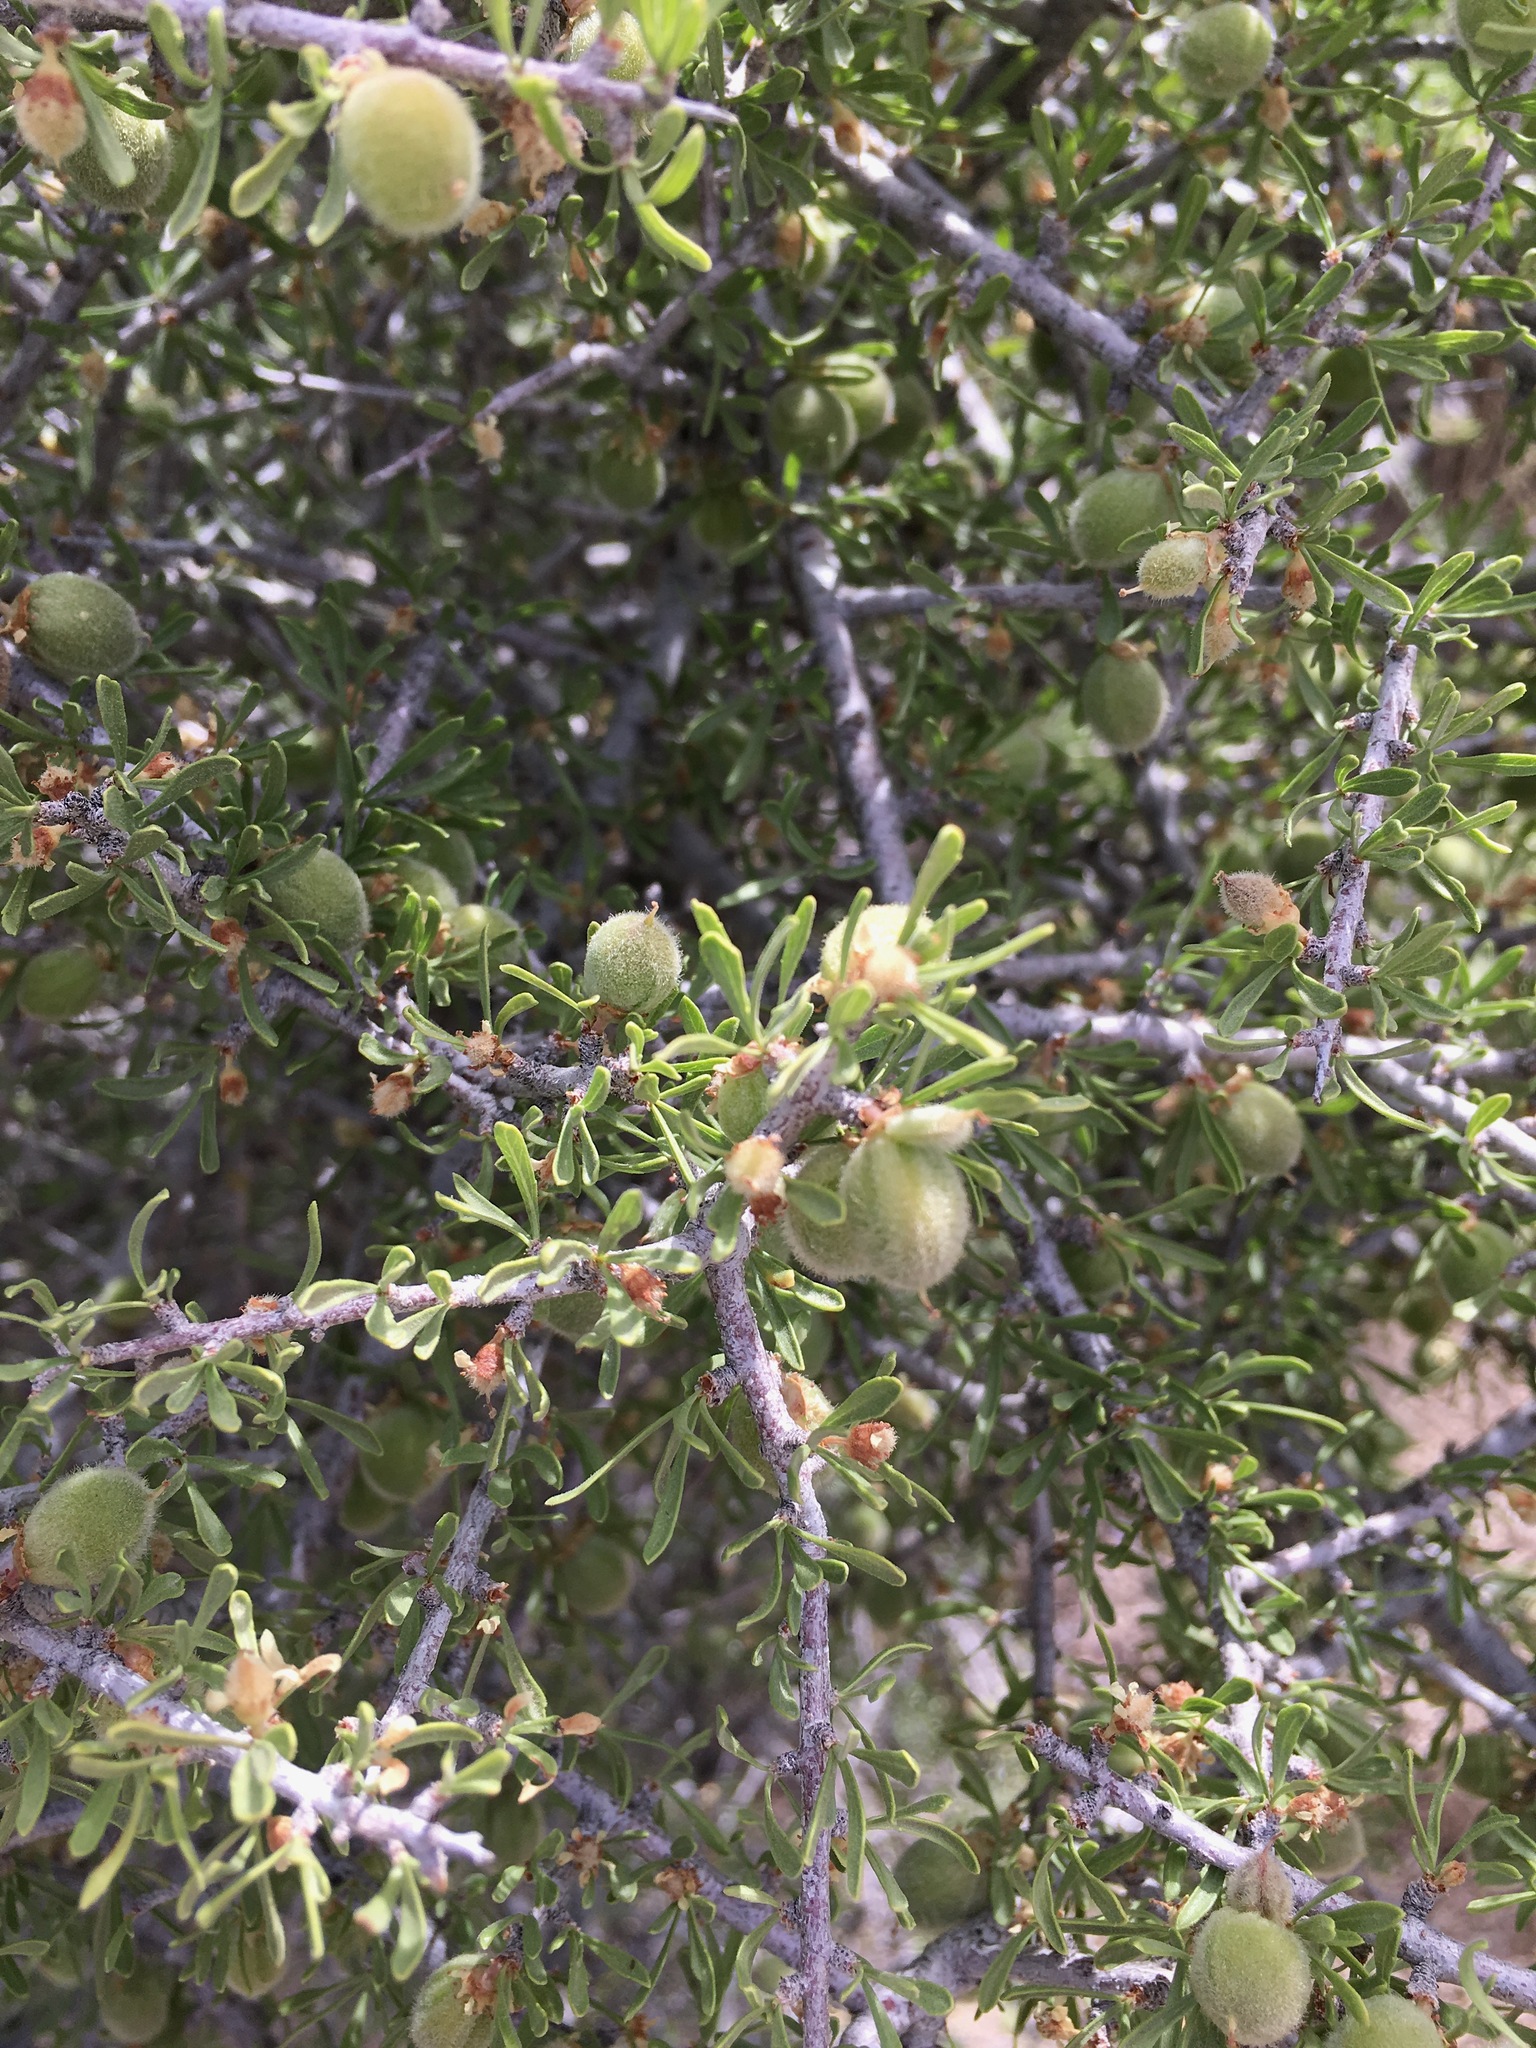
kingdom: Plantae
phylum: Tracheophyta
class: Magnoliopsida
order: Rosales
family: Rosaceae
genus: Prunus
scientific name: Prunus fasciculata
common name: Desert almond
